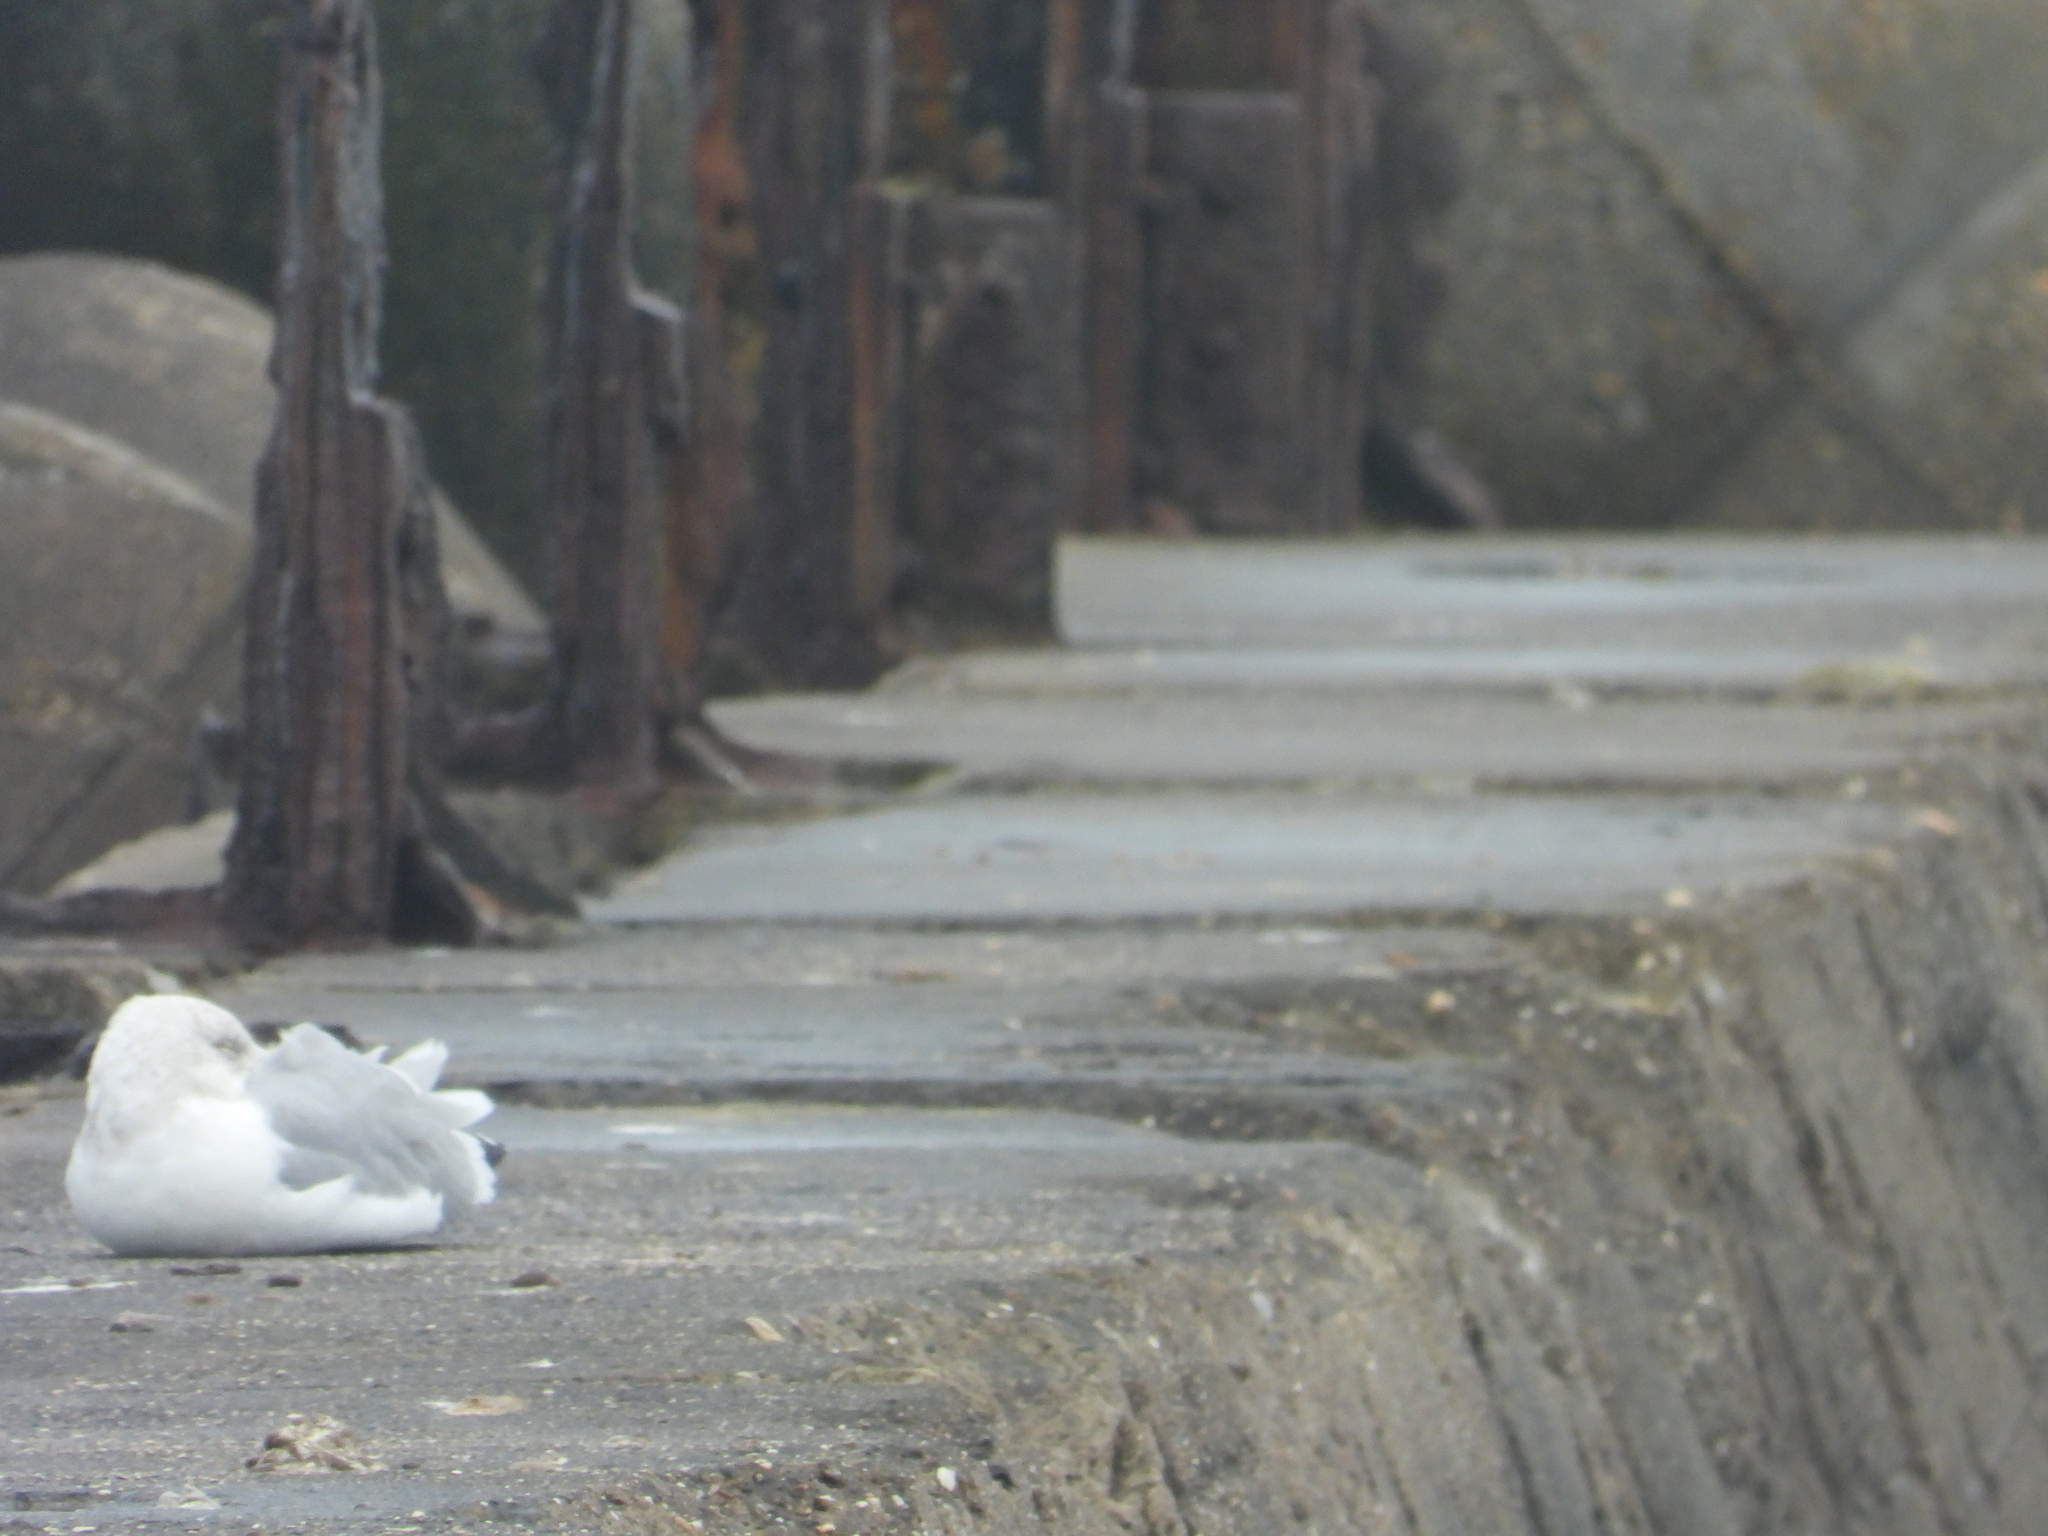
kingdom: Animalia
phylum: Chordata
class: Aves
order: Charadriiformes
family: Laridae
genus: Larus
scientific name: Larus argentatus
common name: Herring gull
